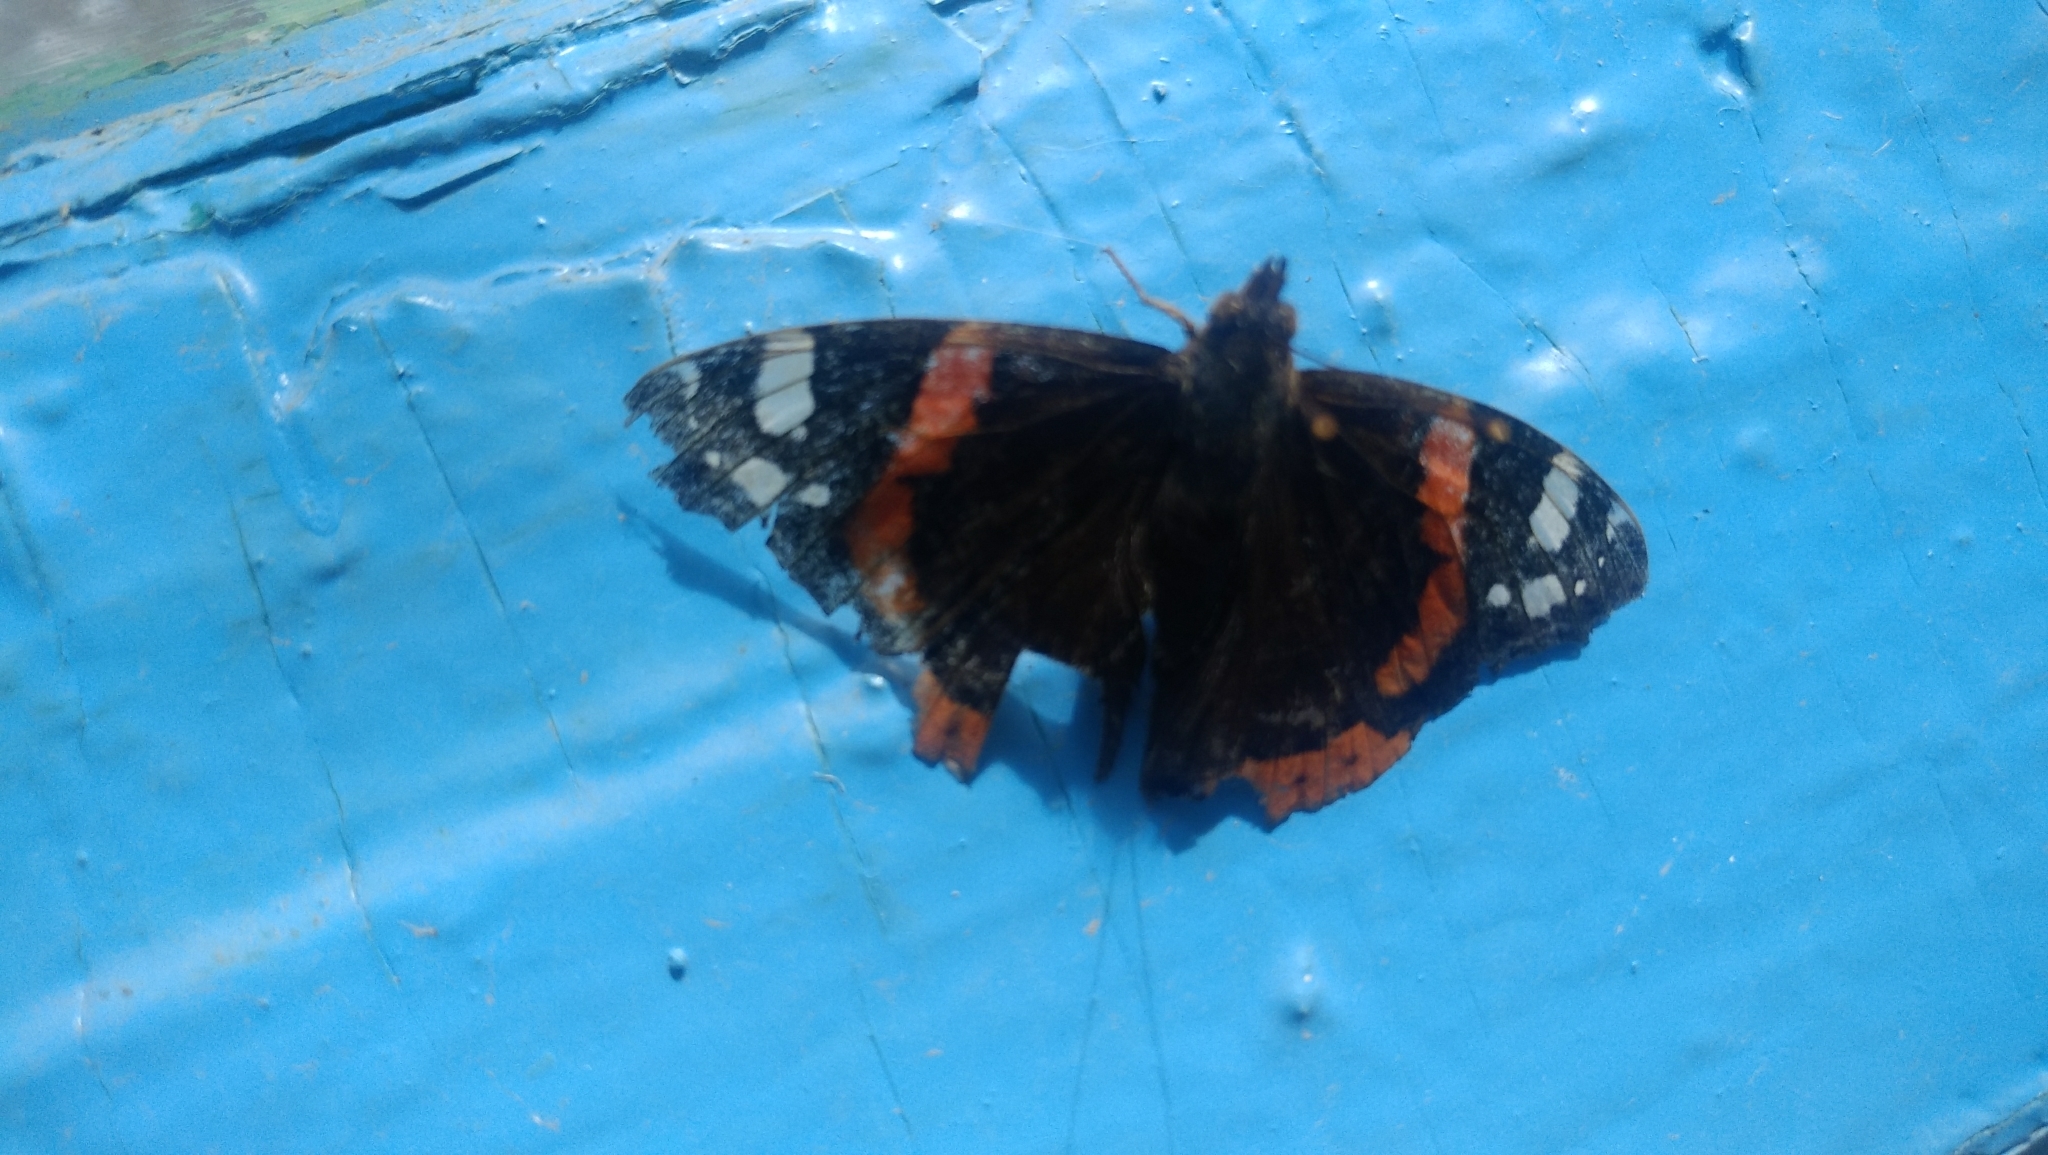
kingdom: Animalia
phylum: Arthropoda
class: Insecta
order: Lepidoptera
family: Nymphalidae
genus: Vanessa
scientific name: Vanessa atalanta
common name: Red admiral
